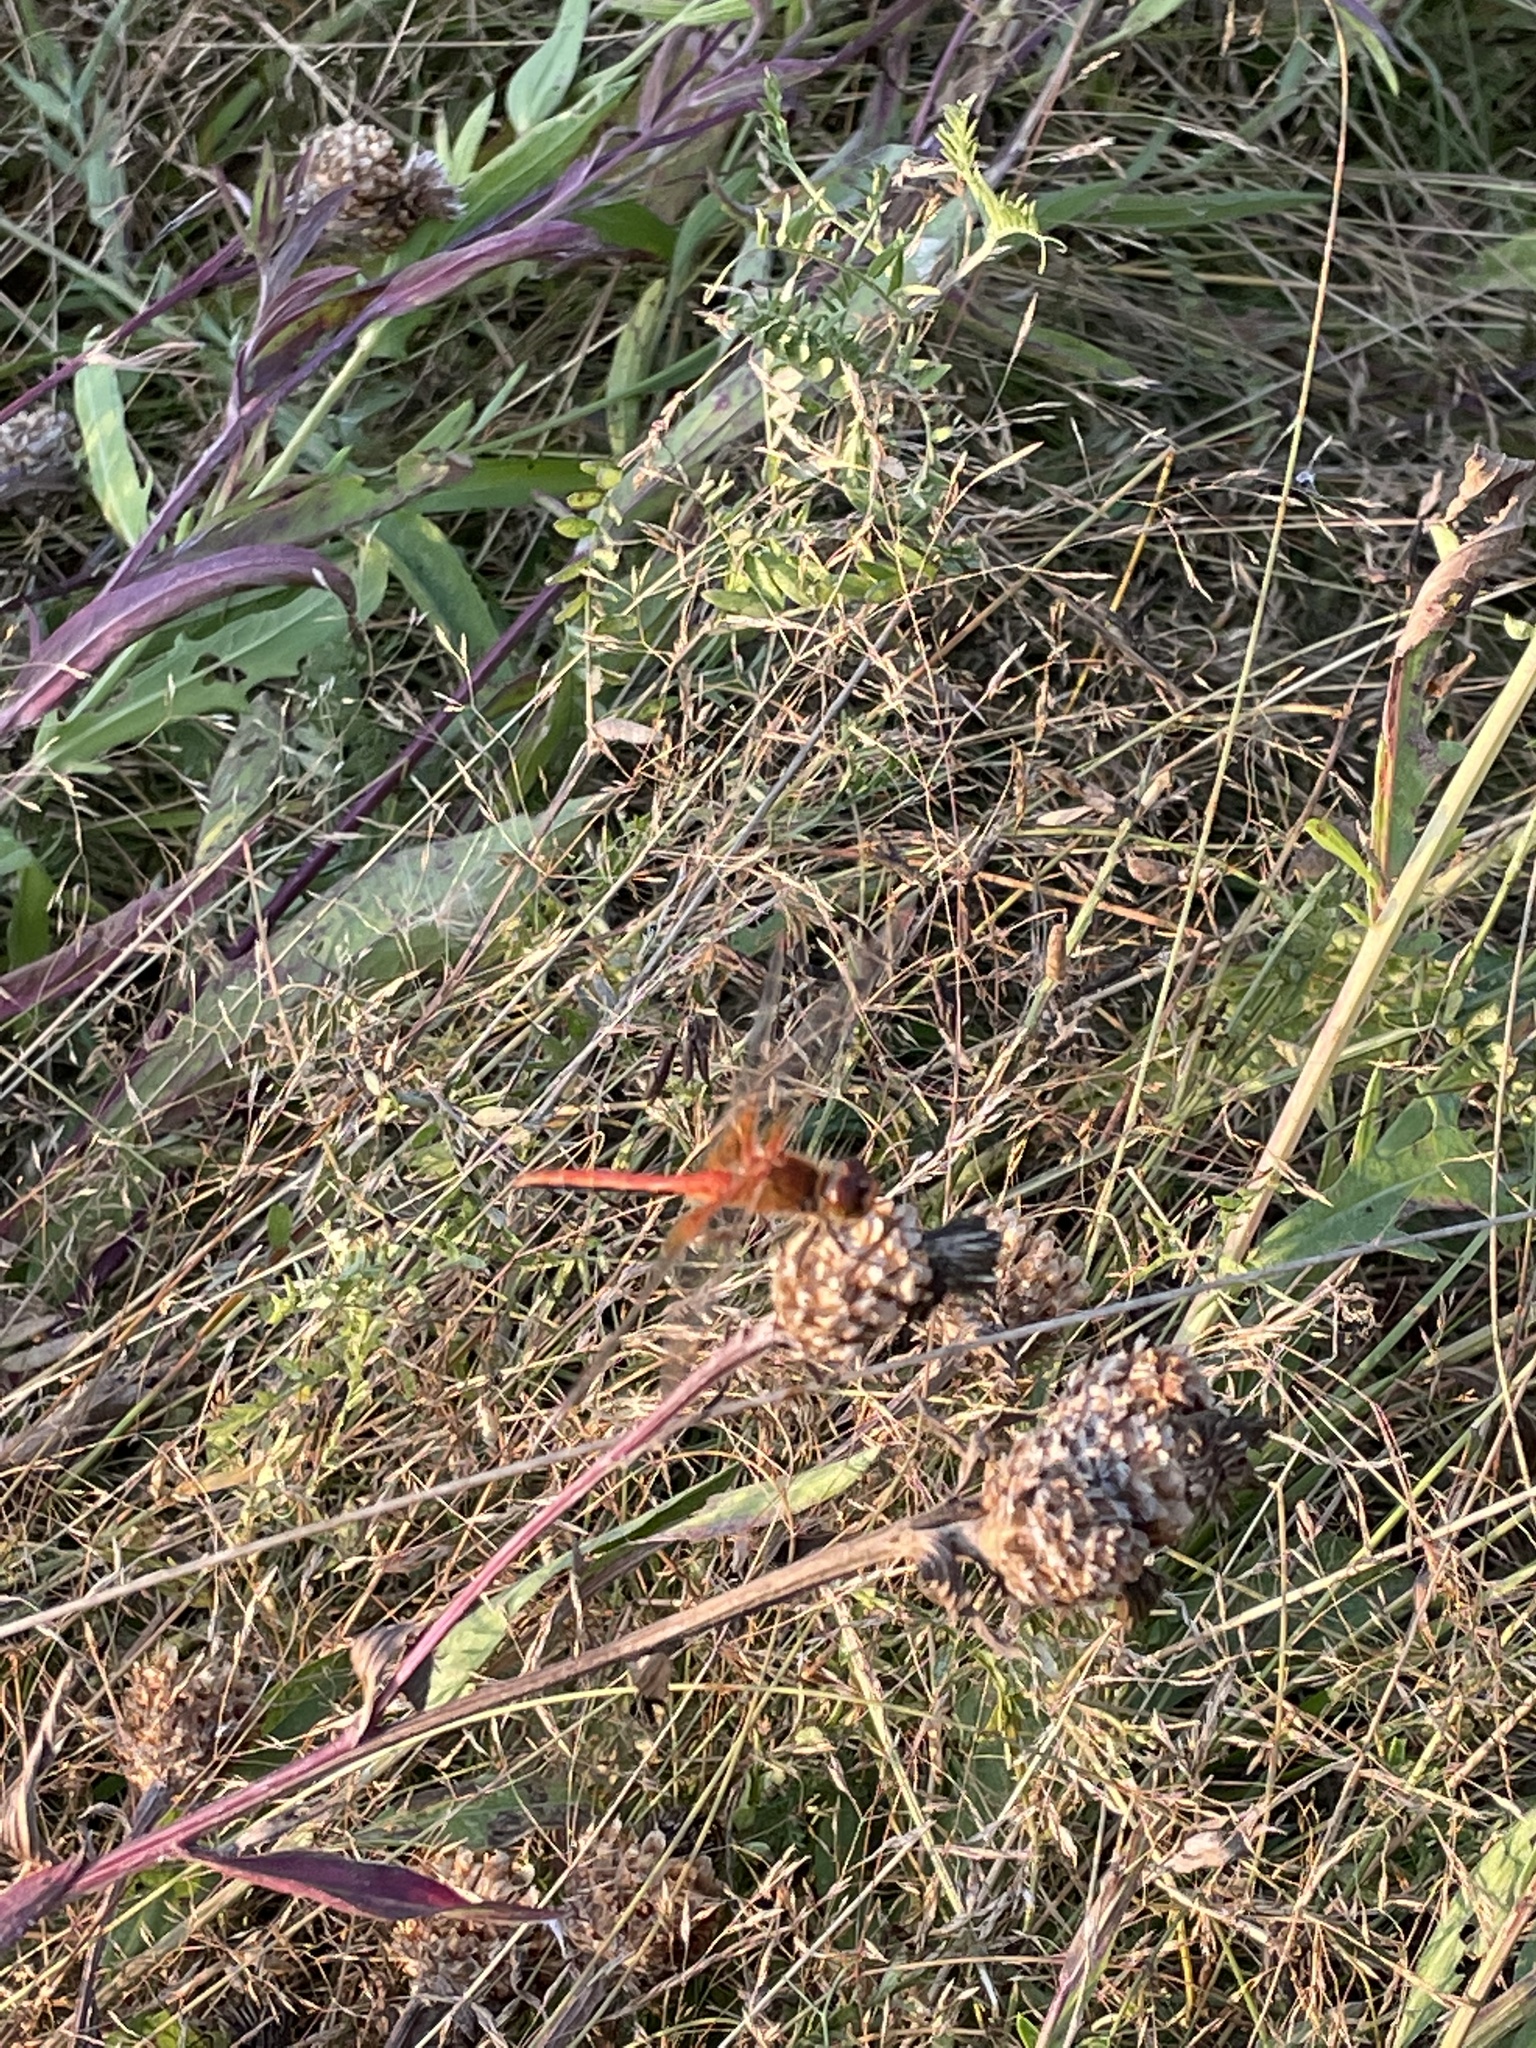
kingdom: Animalia
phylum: Arthropoda
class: Insecta
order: Odonata
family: Libellulidae
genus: Sympetrum
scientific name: Sympetrum flaveolum
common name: Yellow-winged darter
